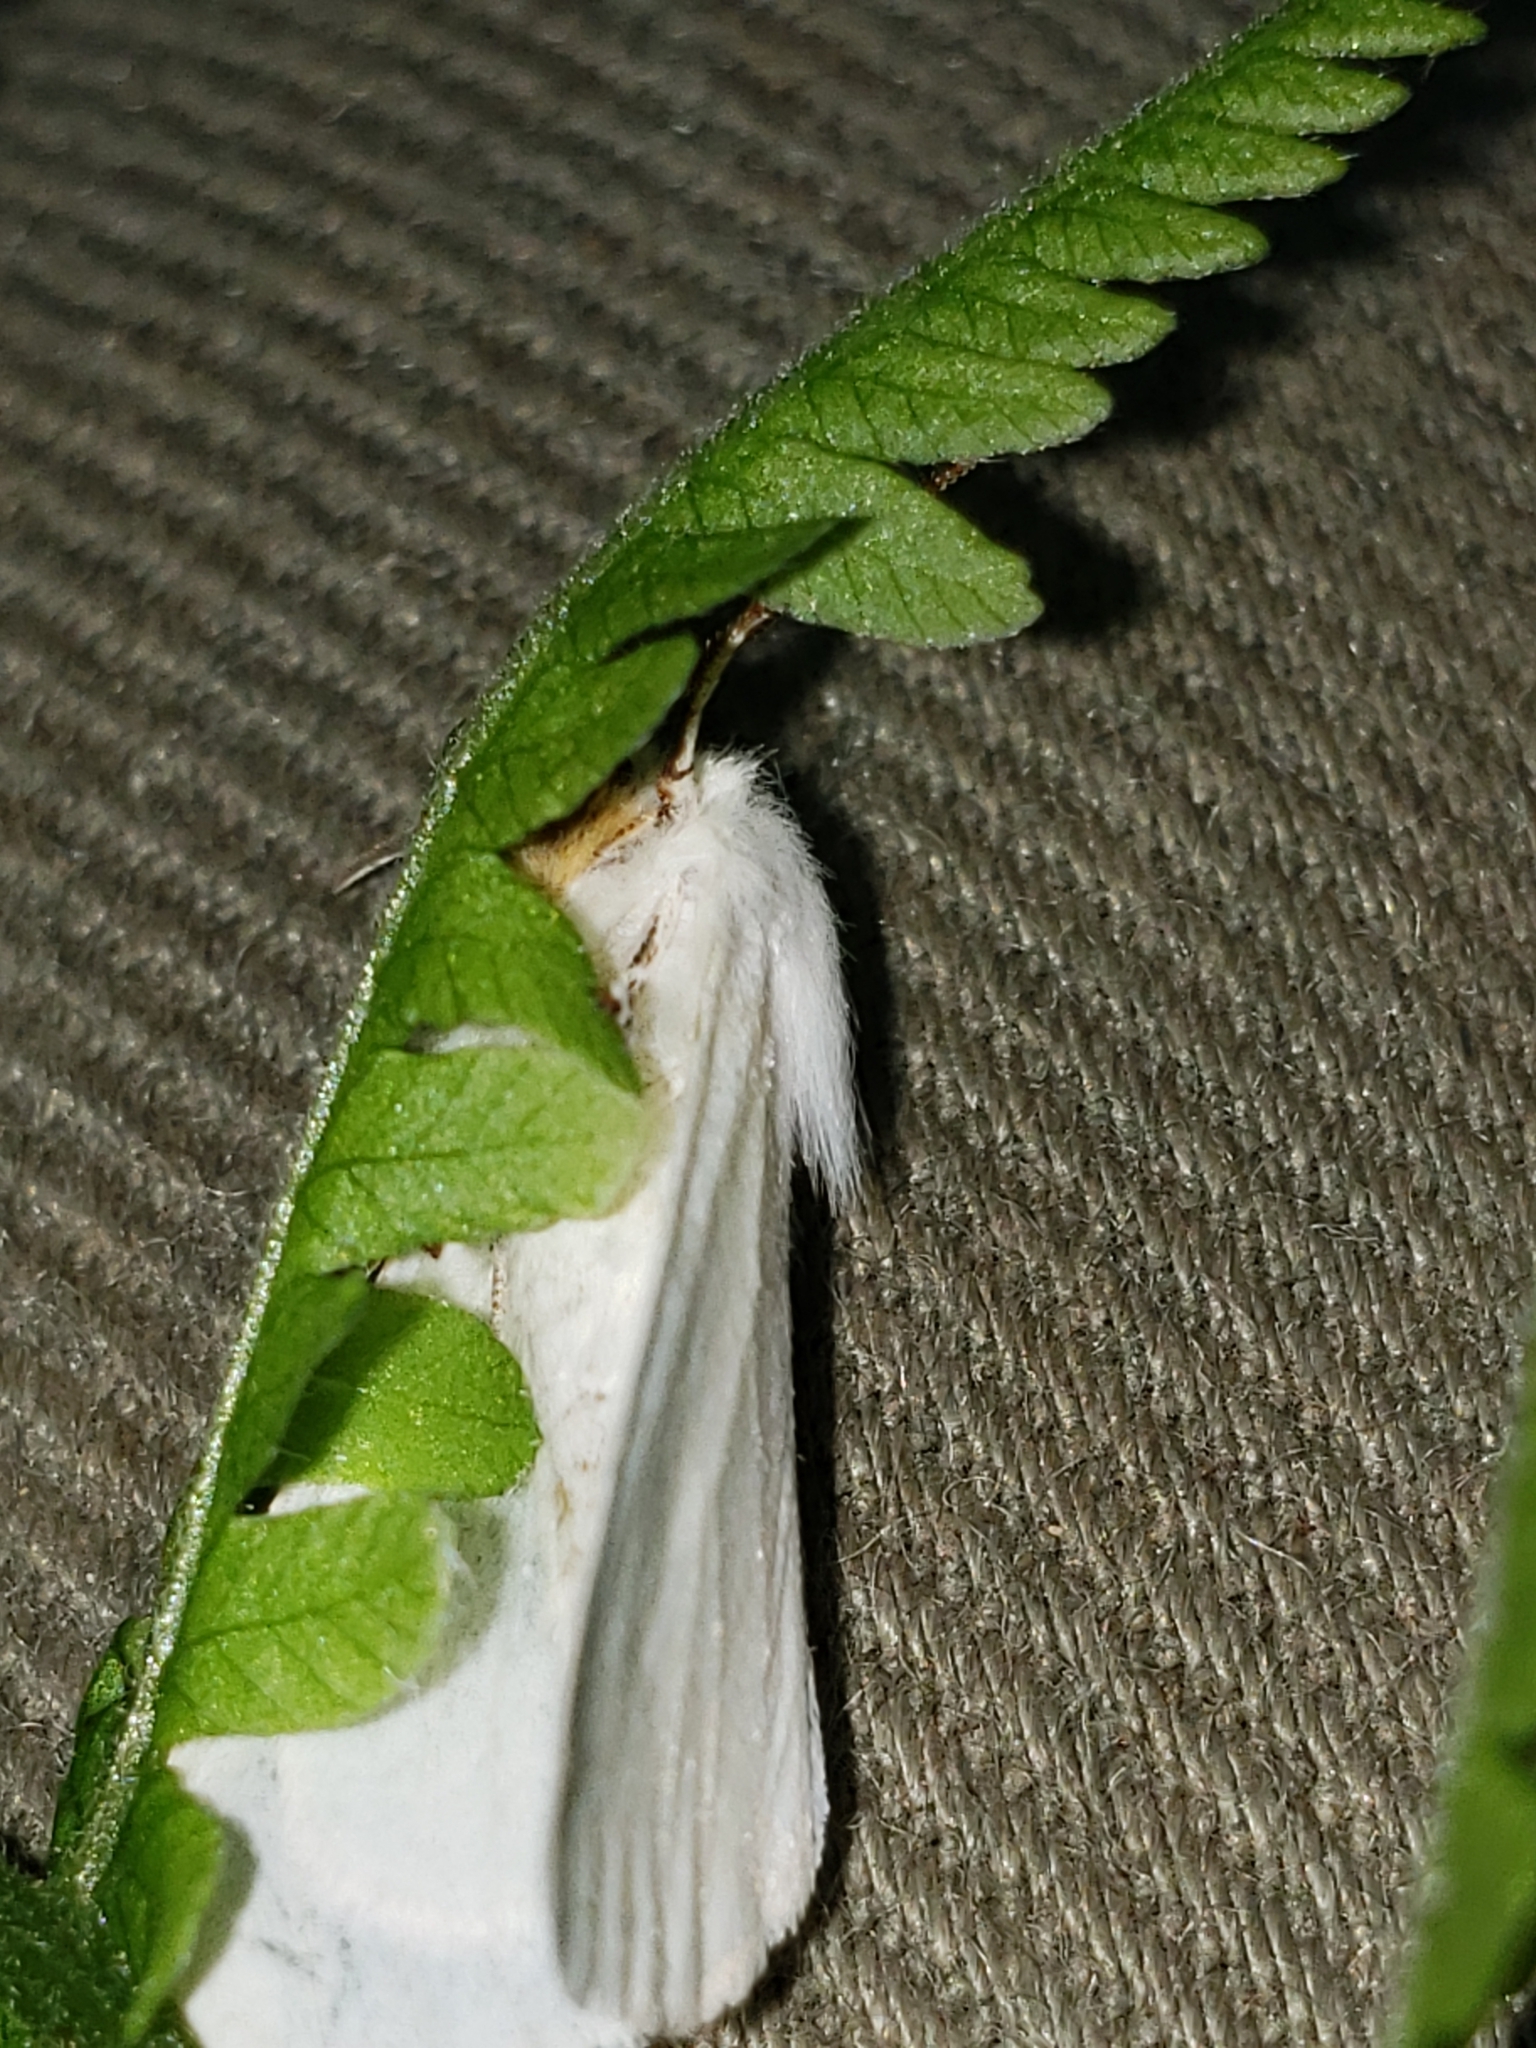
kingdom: Animalia
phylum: Arthropoda
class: Insecta
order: Lepidoptera
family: Erebidae
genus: Hyphantria
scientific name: Hyphantria cunea
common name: American white moth
